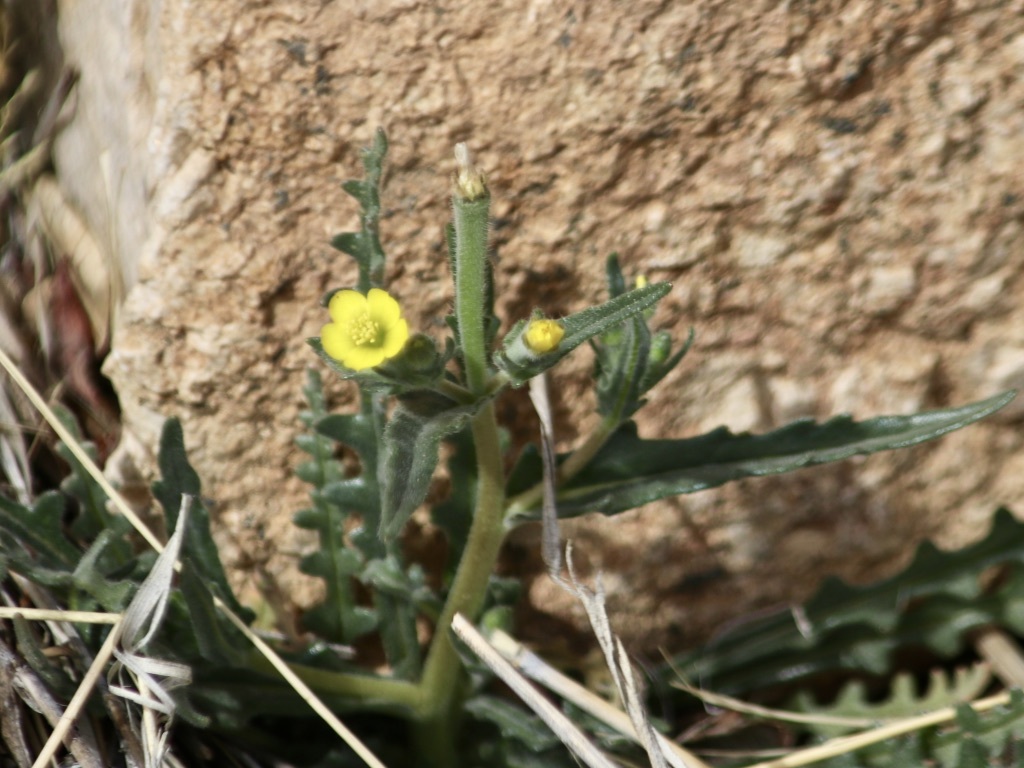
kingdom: Plantae
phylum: Tracheophyta
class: Magnoliopsida
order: Cornales
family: Loasaceae
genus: Mentzelia
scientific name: Mentzelia albicaulis
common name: White-stem blazingstar
